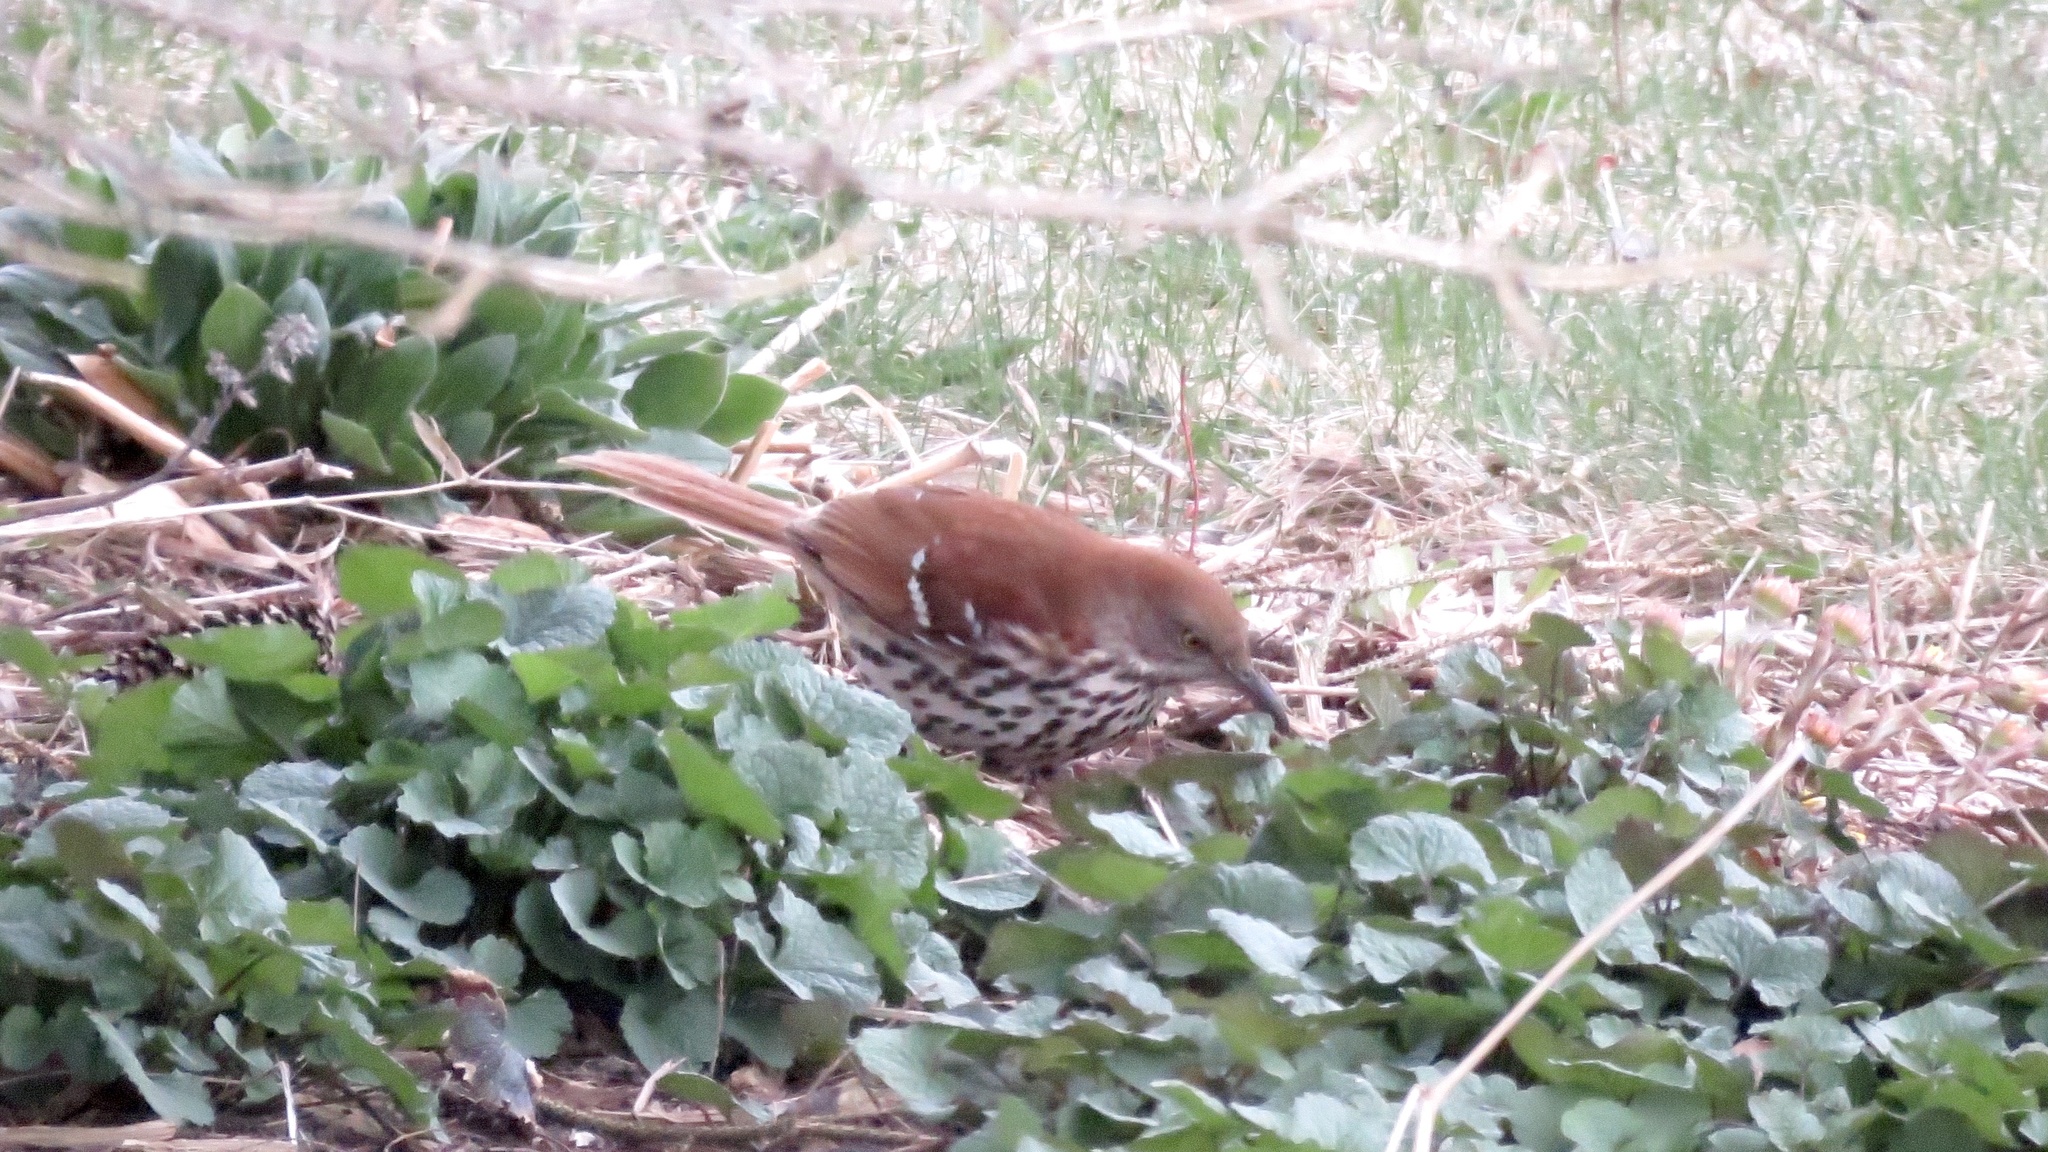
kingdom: Animalia
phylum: Chordata
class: Aves
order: Passeriformes
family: Mimidae
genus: Toxostoma
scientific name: Toxostoma rufum
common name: Brown thrasher
